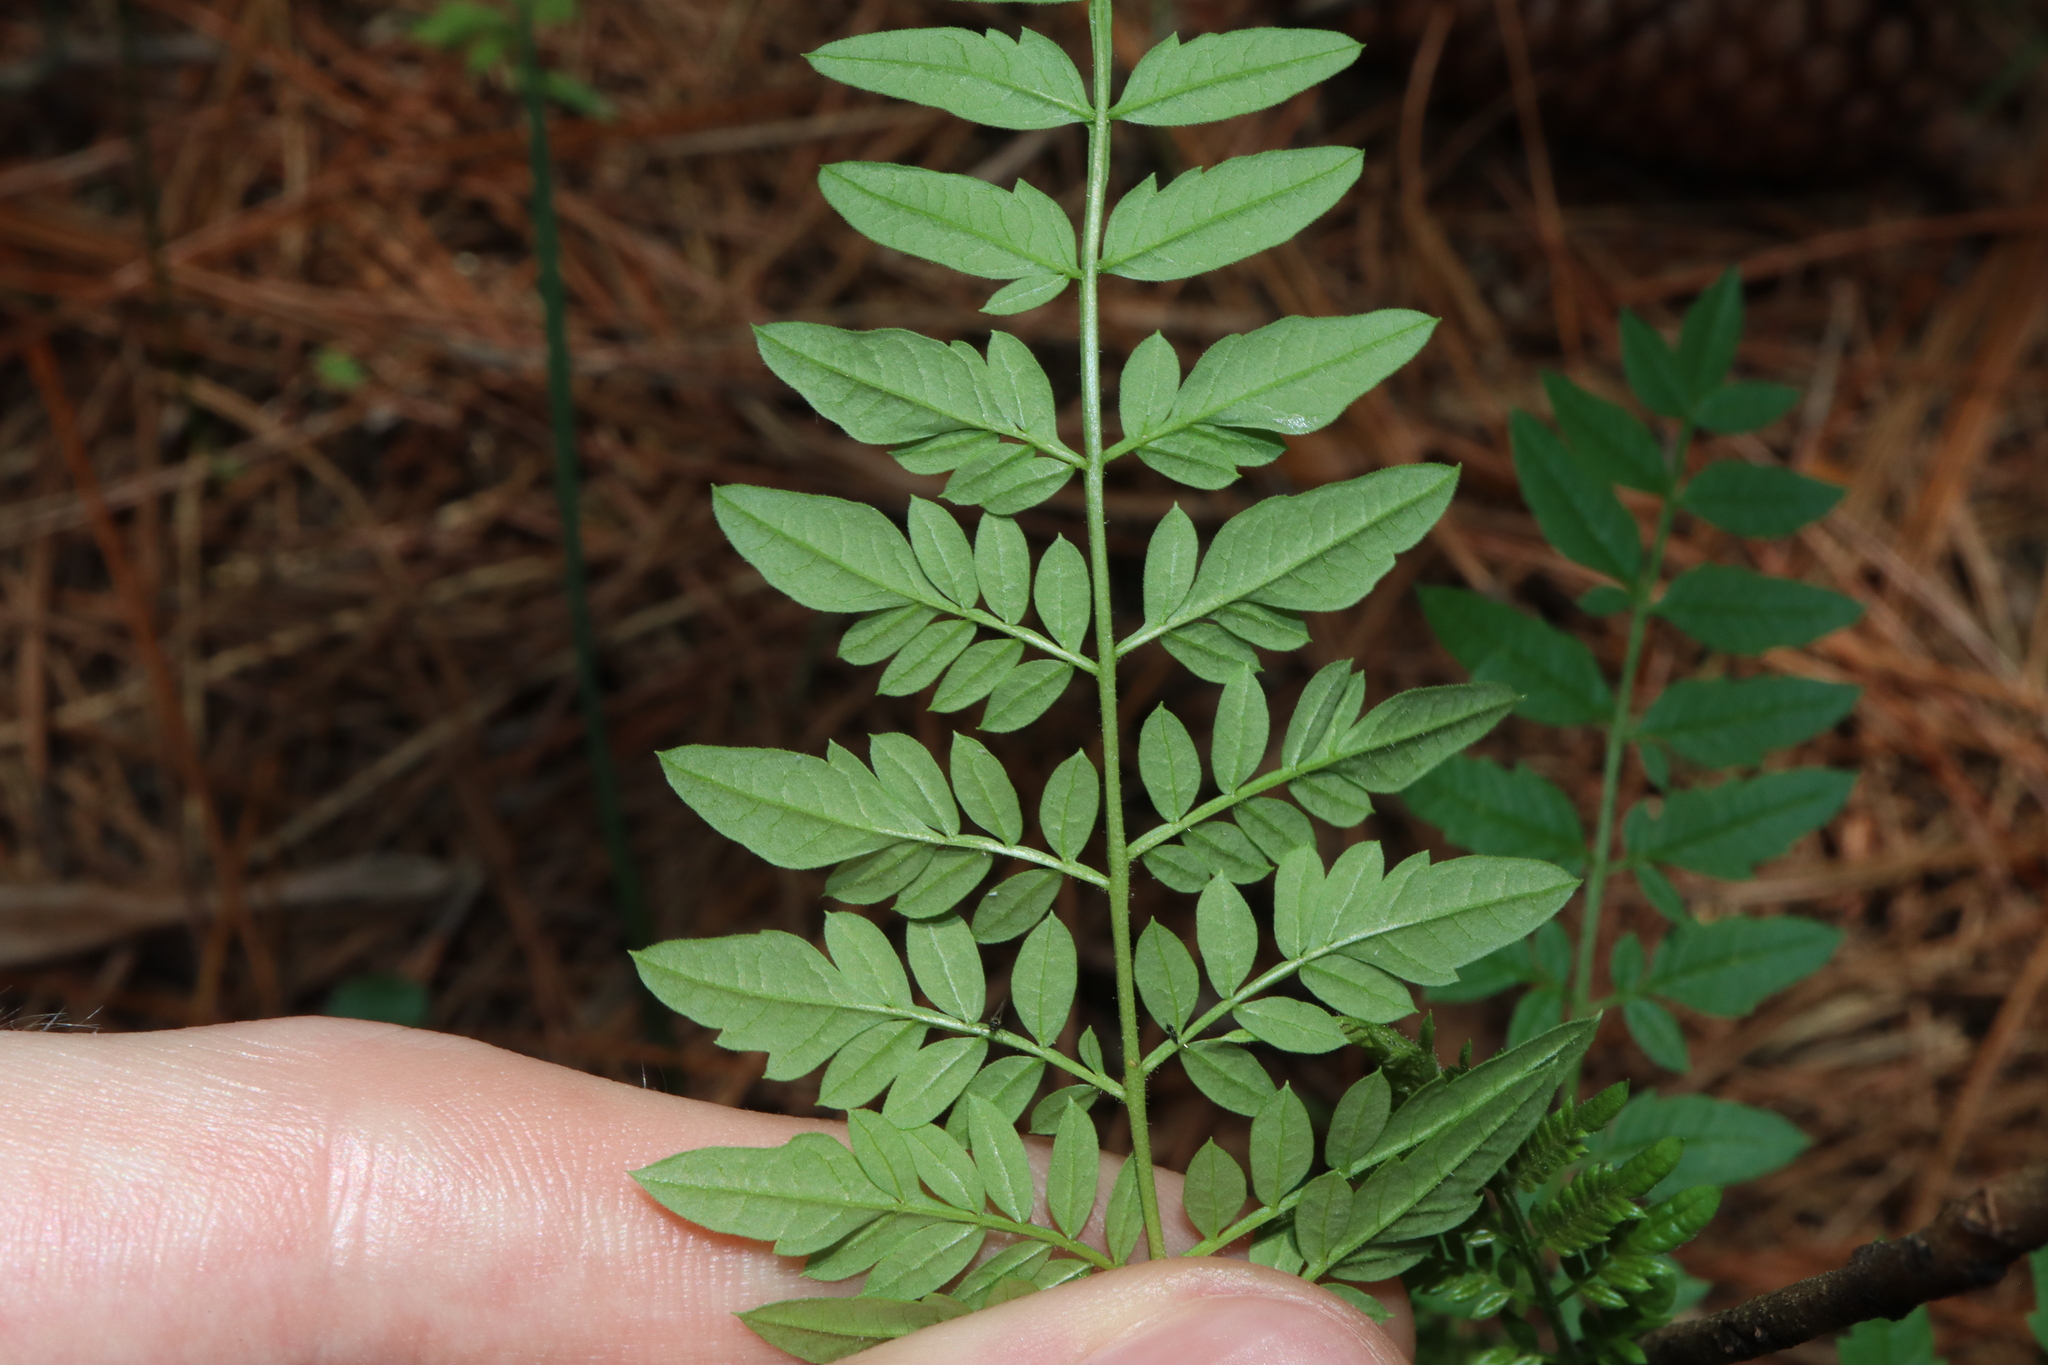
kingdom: Plantae
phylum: Tracheophyta
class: Magnoliopsida
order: Lamiales
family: Bignoniaceae
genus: Jacaranda
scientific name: Jacaranda mimosifolia
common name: Black poui
